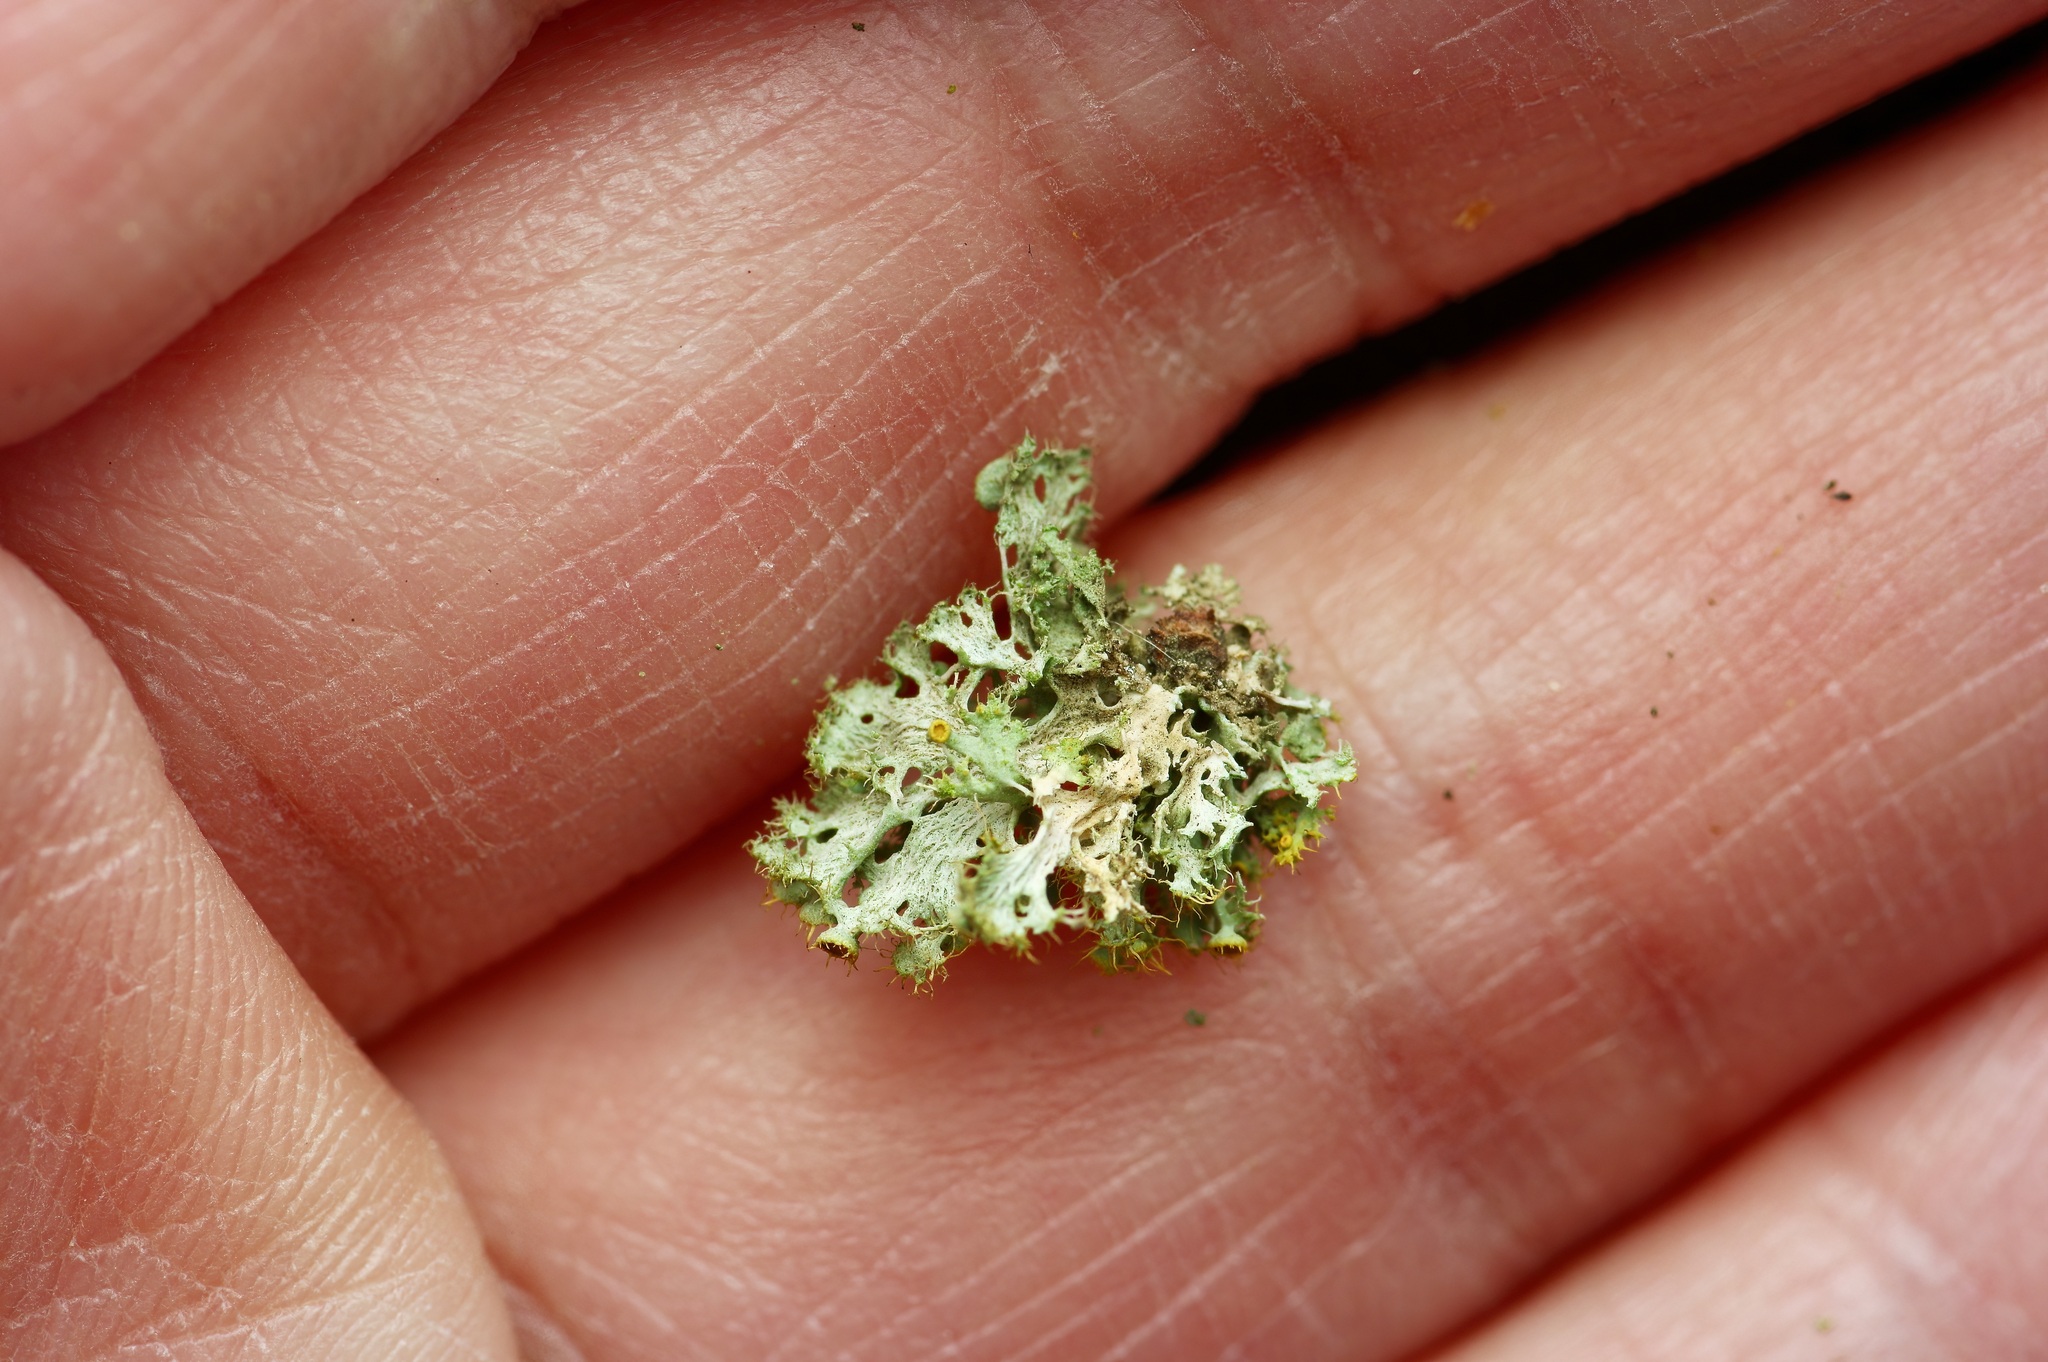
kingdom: Fungi
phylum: Ascomycota
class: Lecanoromycetes
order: Teloschistales
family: Teloschistaceae
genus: Niorma
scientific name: Niorma chrysophthalma
